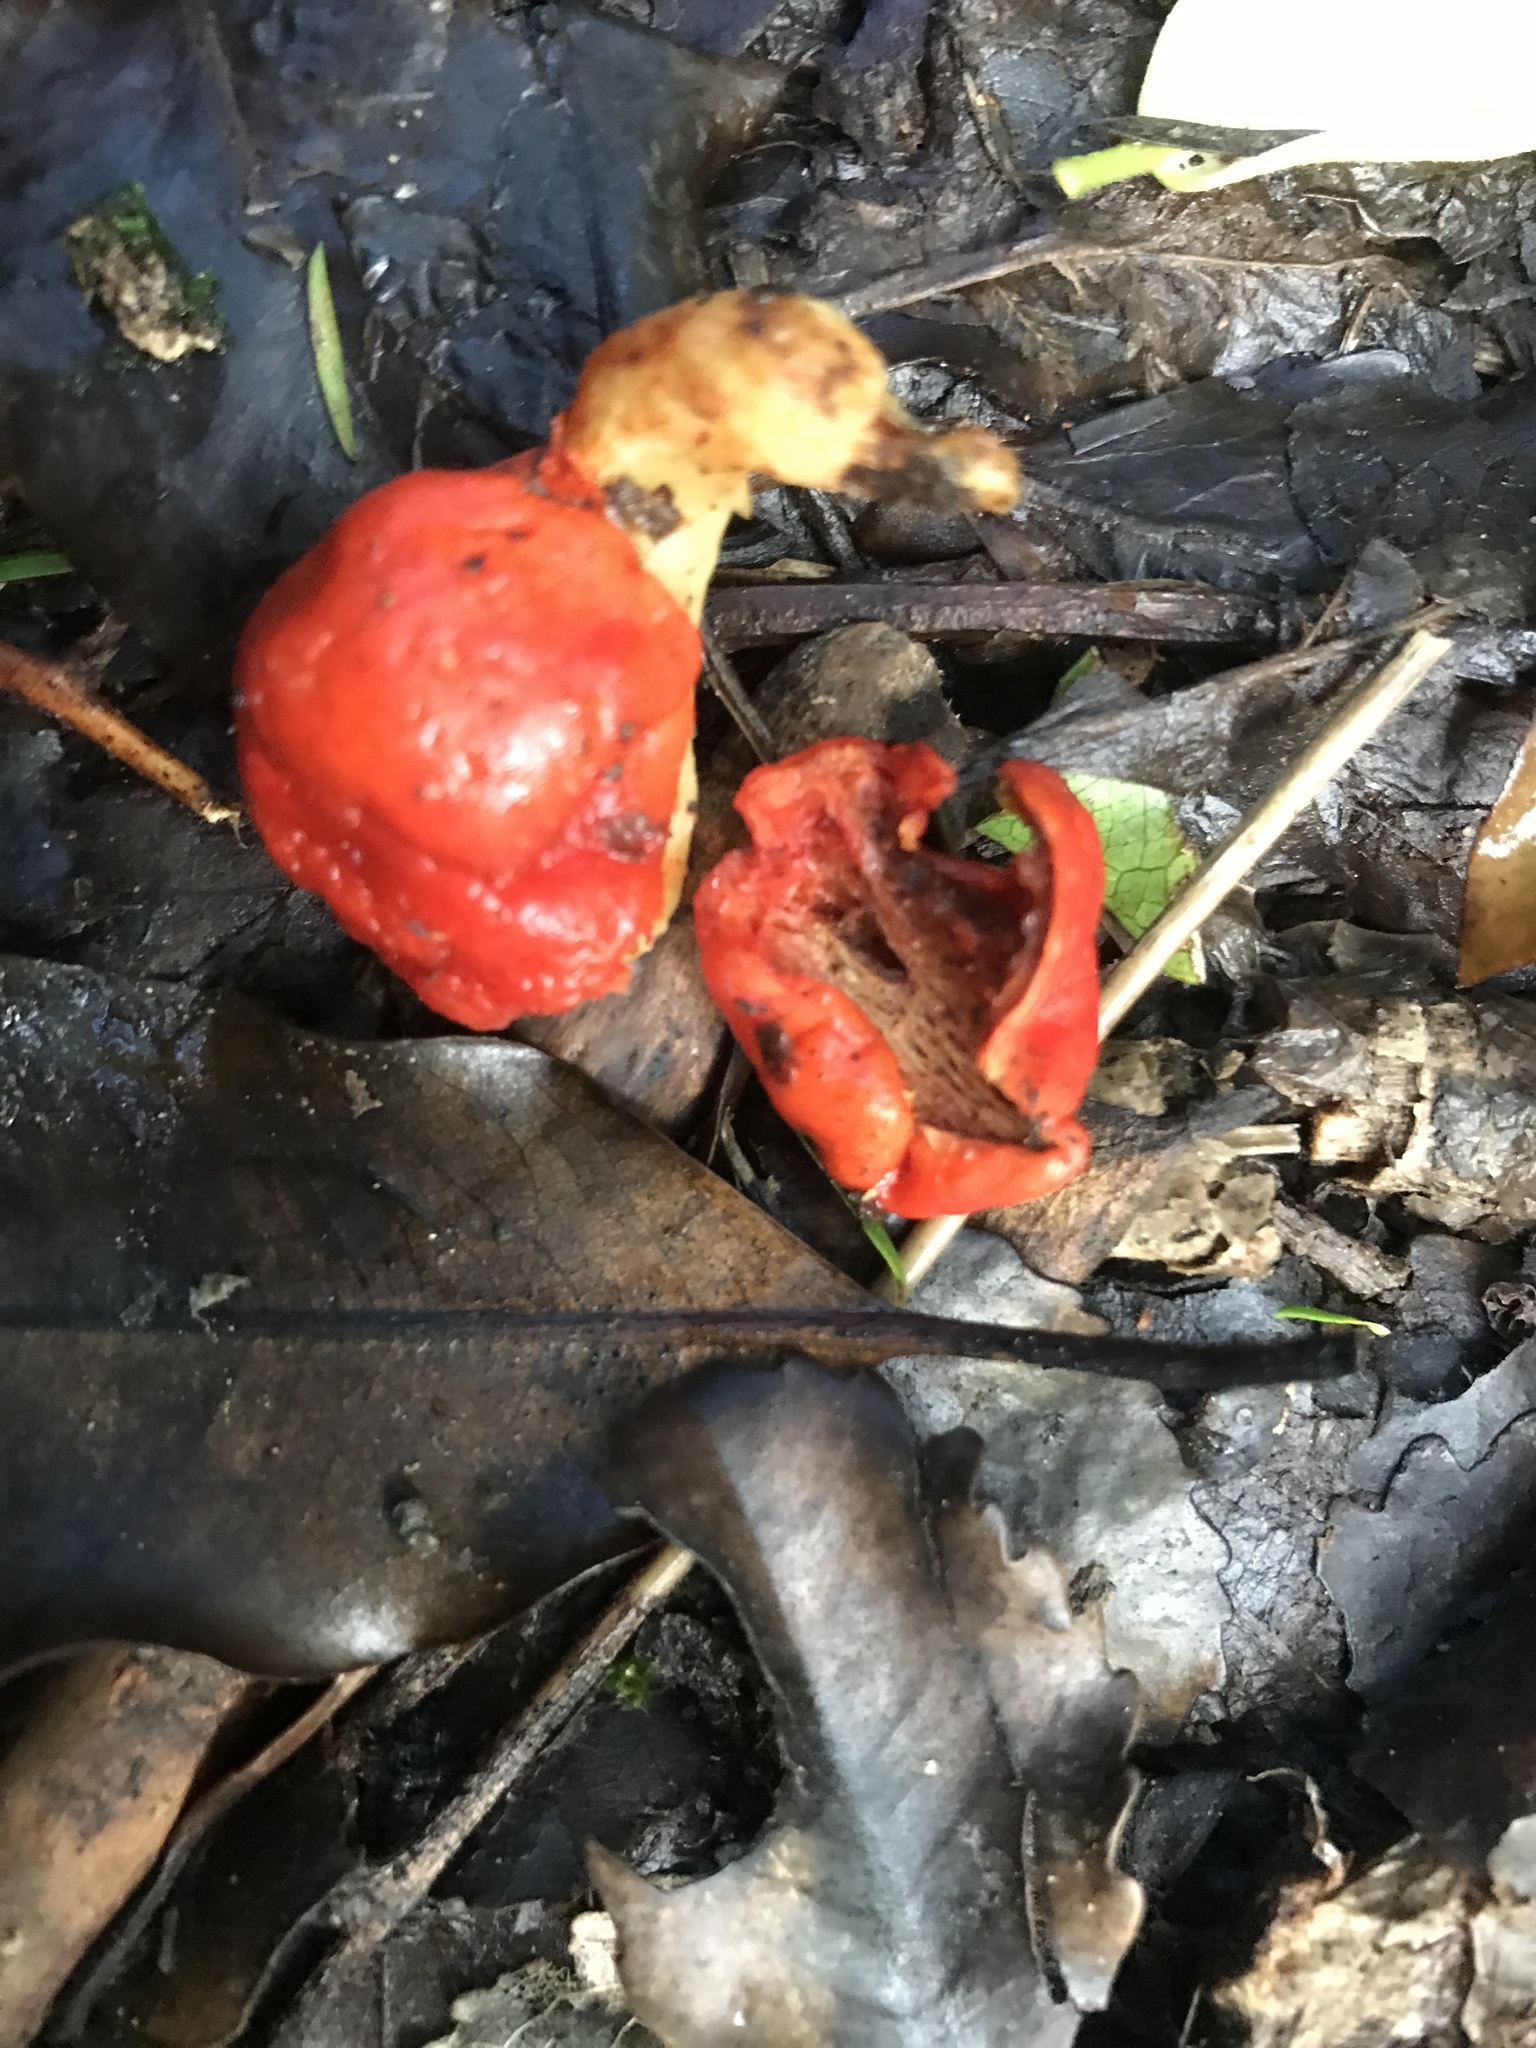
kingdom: Fungi
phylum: Basidiomycota
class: Agaricomycetes
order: Agaricales
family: Strophariaceae
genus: Leratiomyces
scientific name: Leratiomyces erythrocephalus
